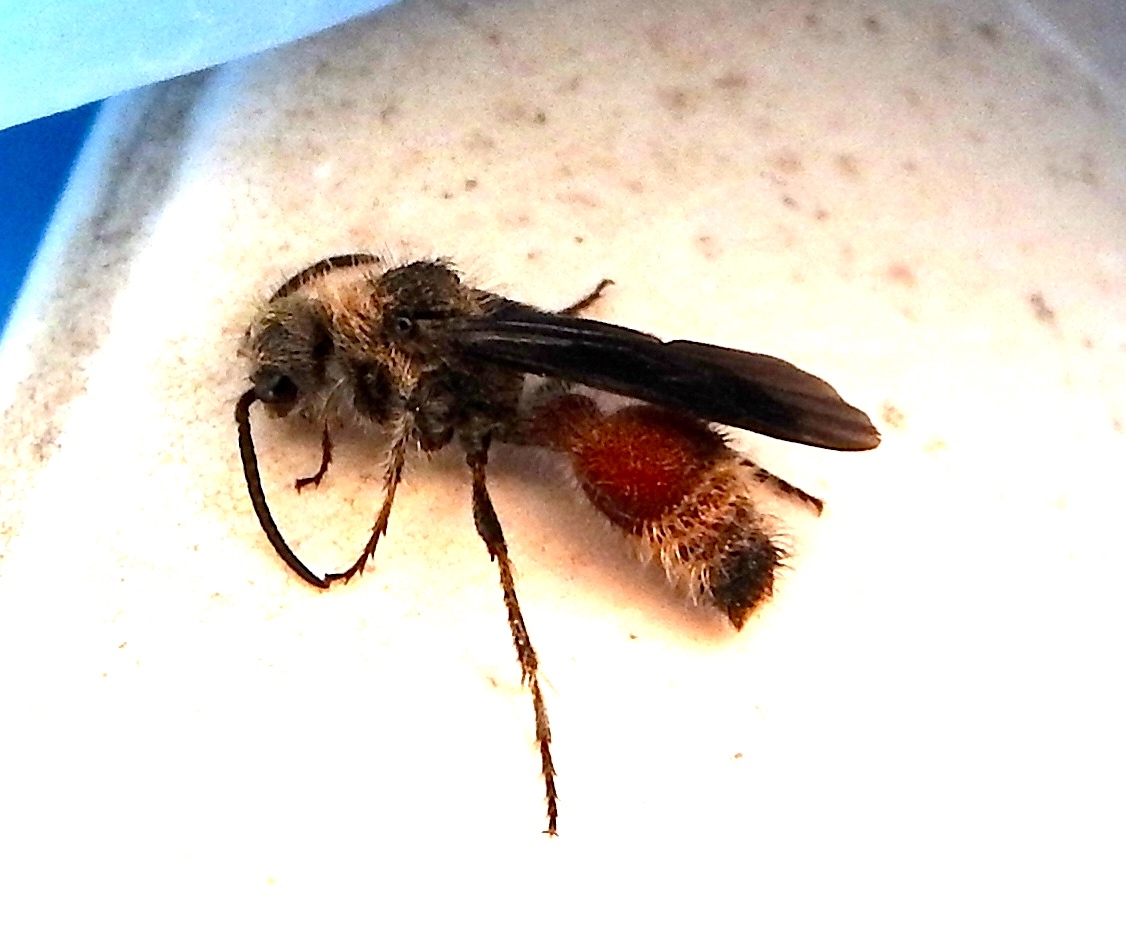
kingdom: Animalia
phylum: Arthropoda
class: Insecta
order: Hymenoptera
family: Mutillidae
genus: Dasymutilla
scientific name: Dasymutilla
